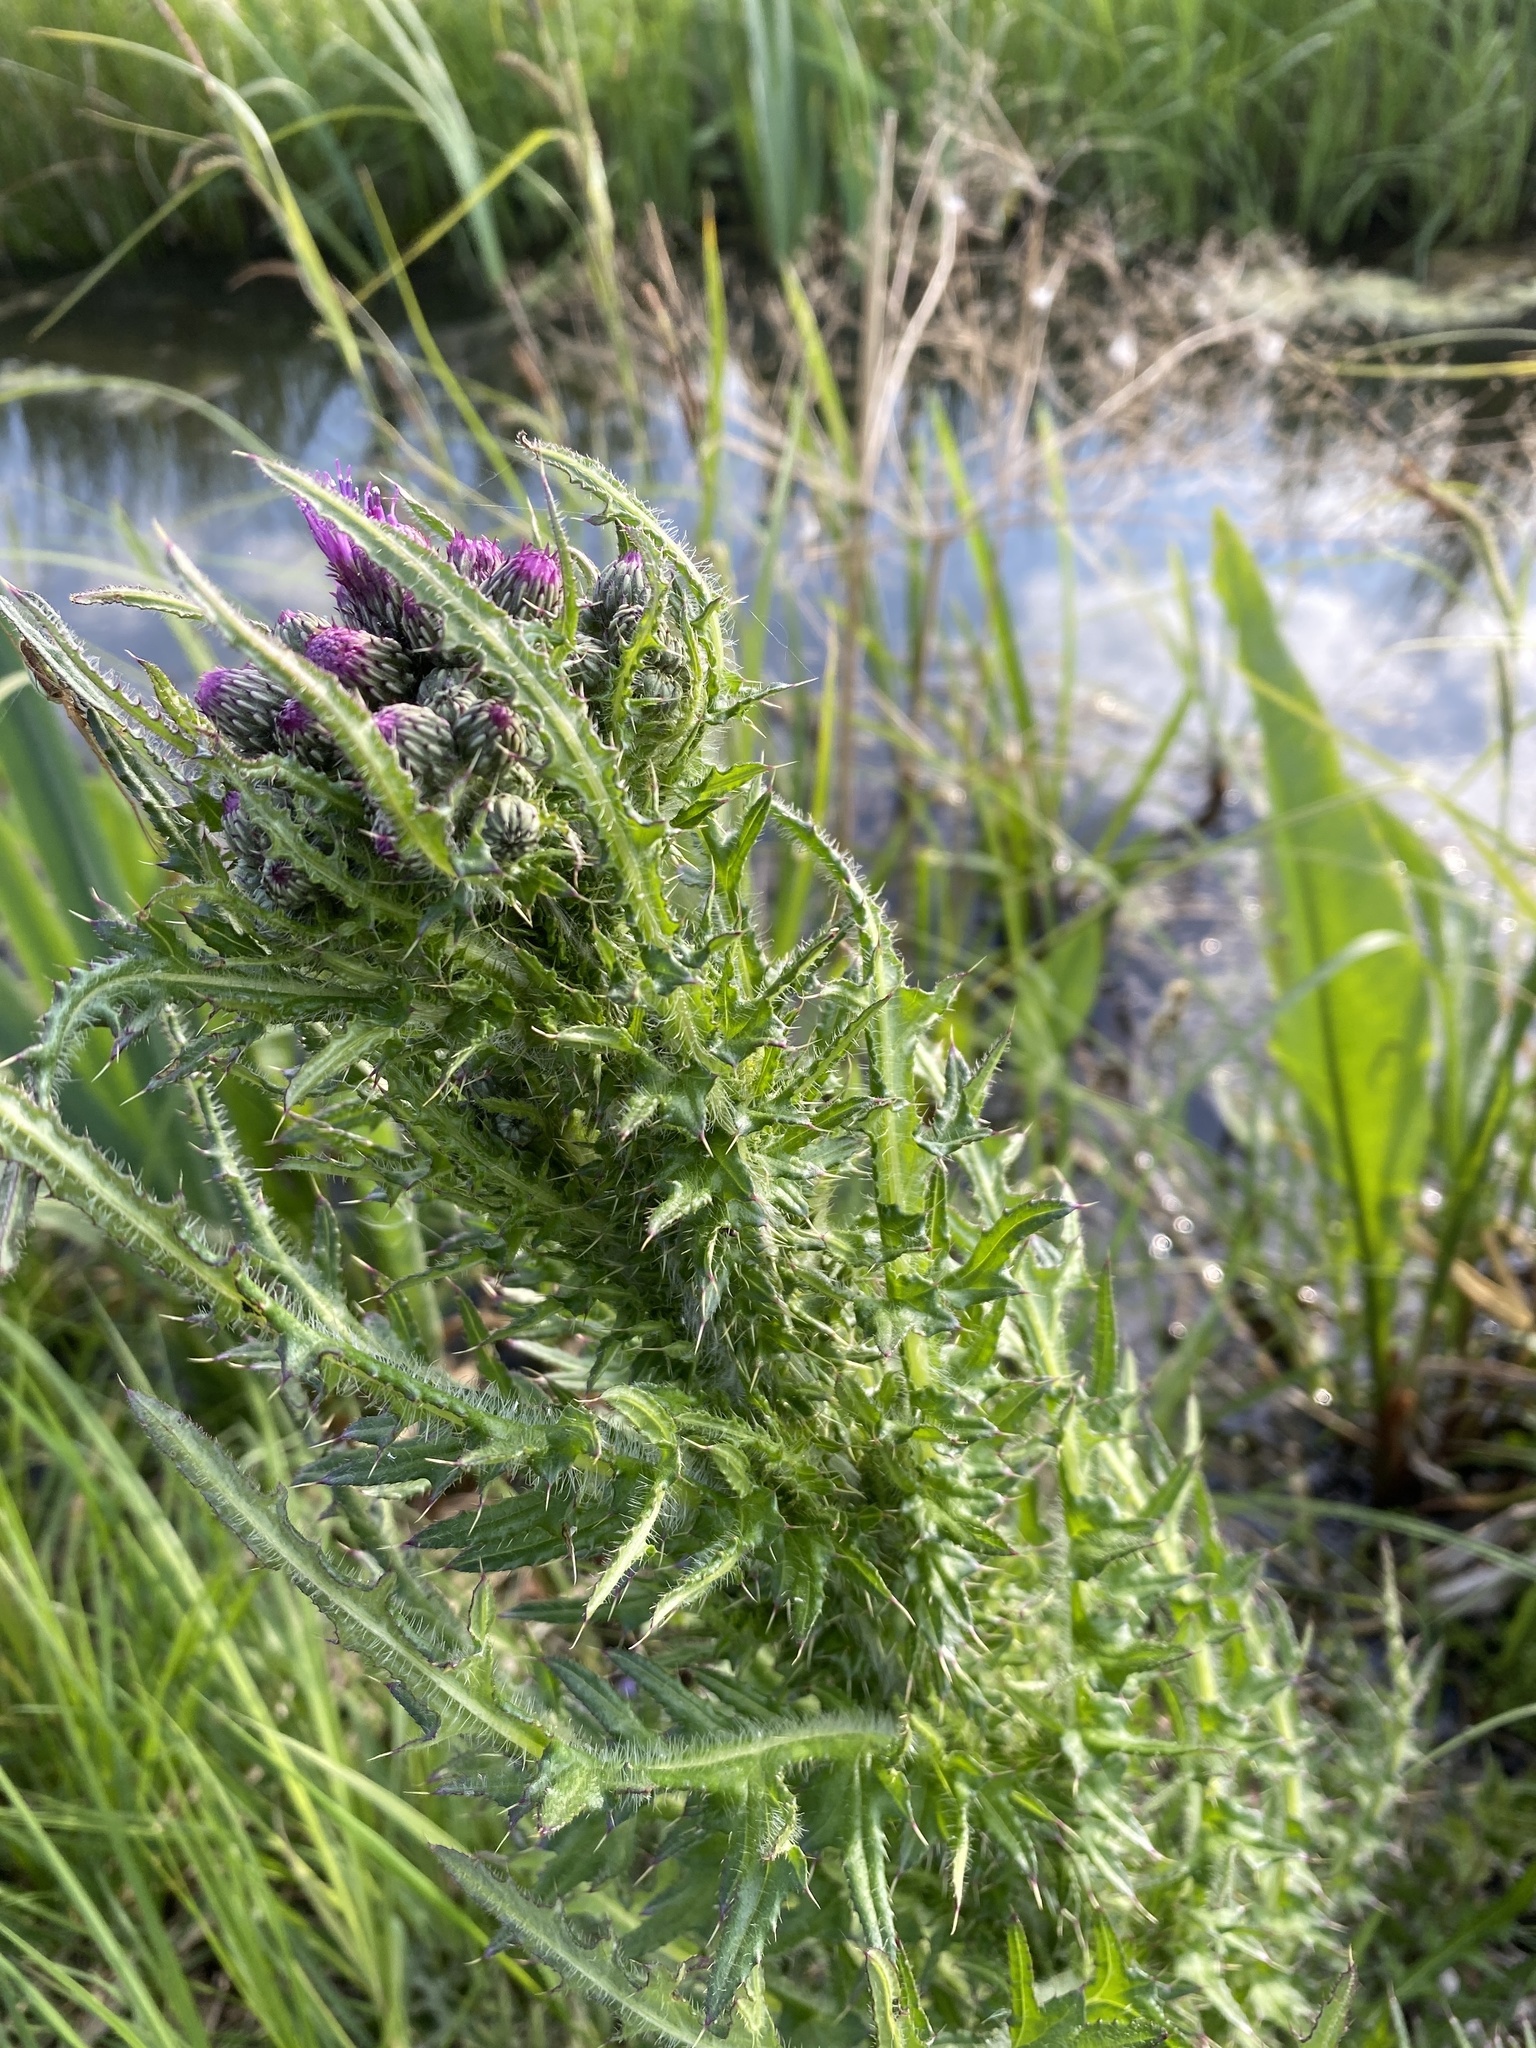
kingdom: Plantae
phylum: Tracheophyta
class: Magnoliopsida
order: Asterales
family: Asteraceae
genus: Cirsium
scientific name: Cirsium palustre
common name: Marsh thistle
